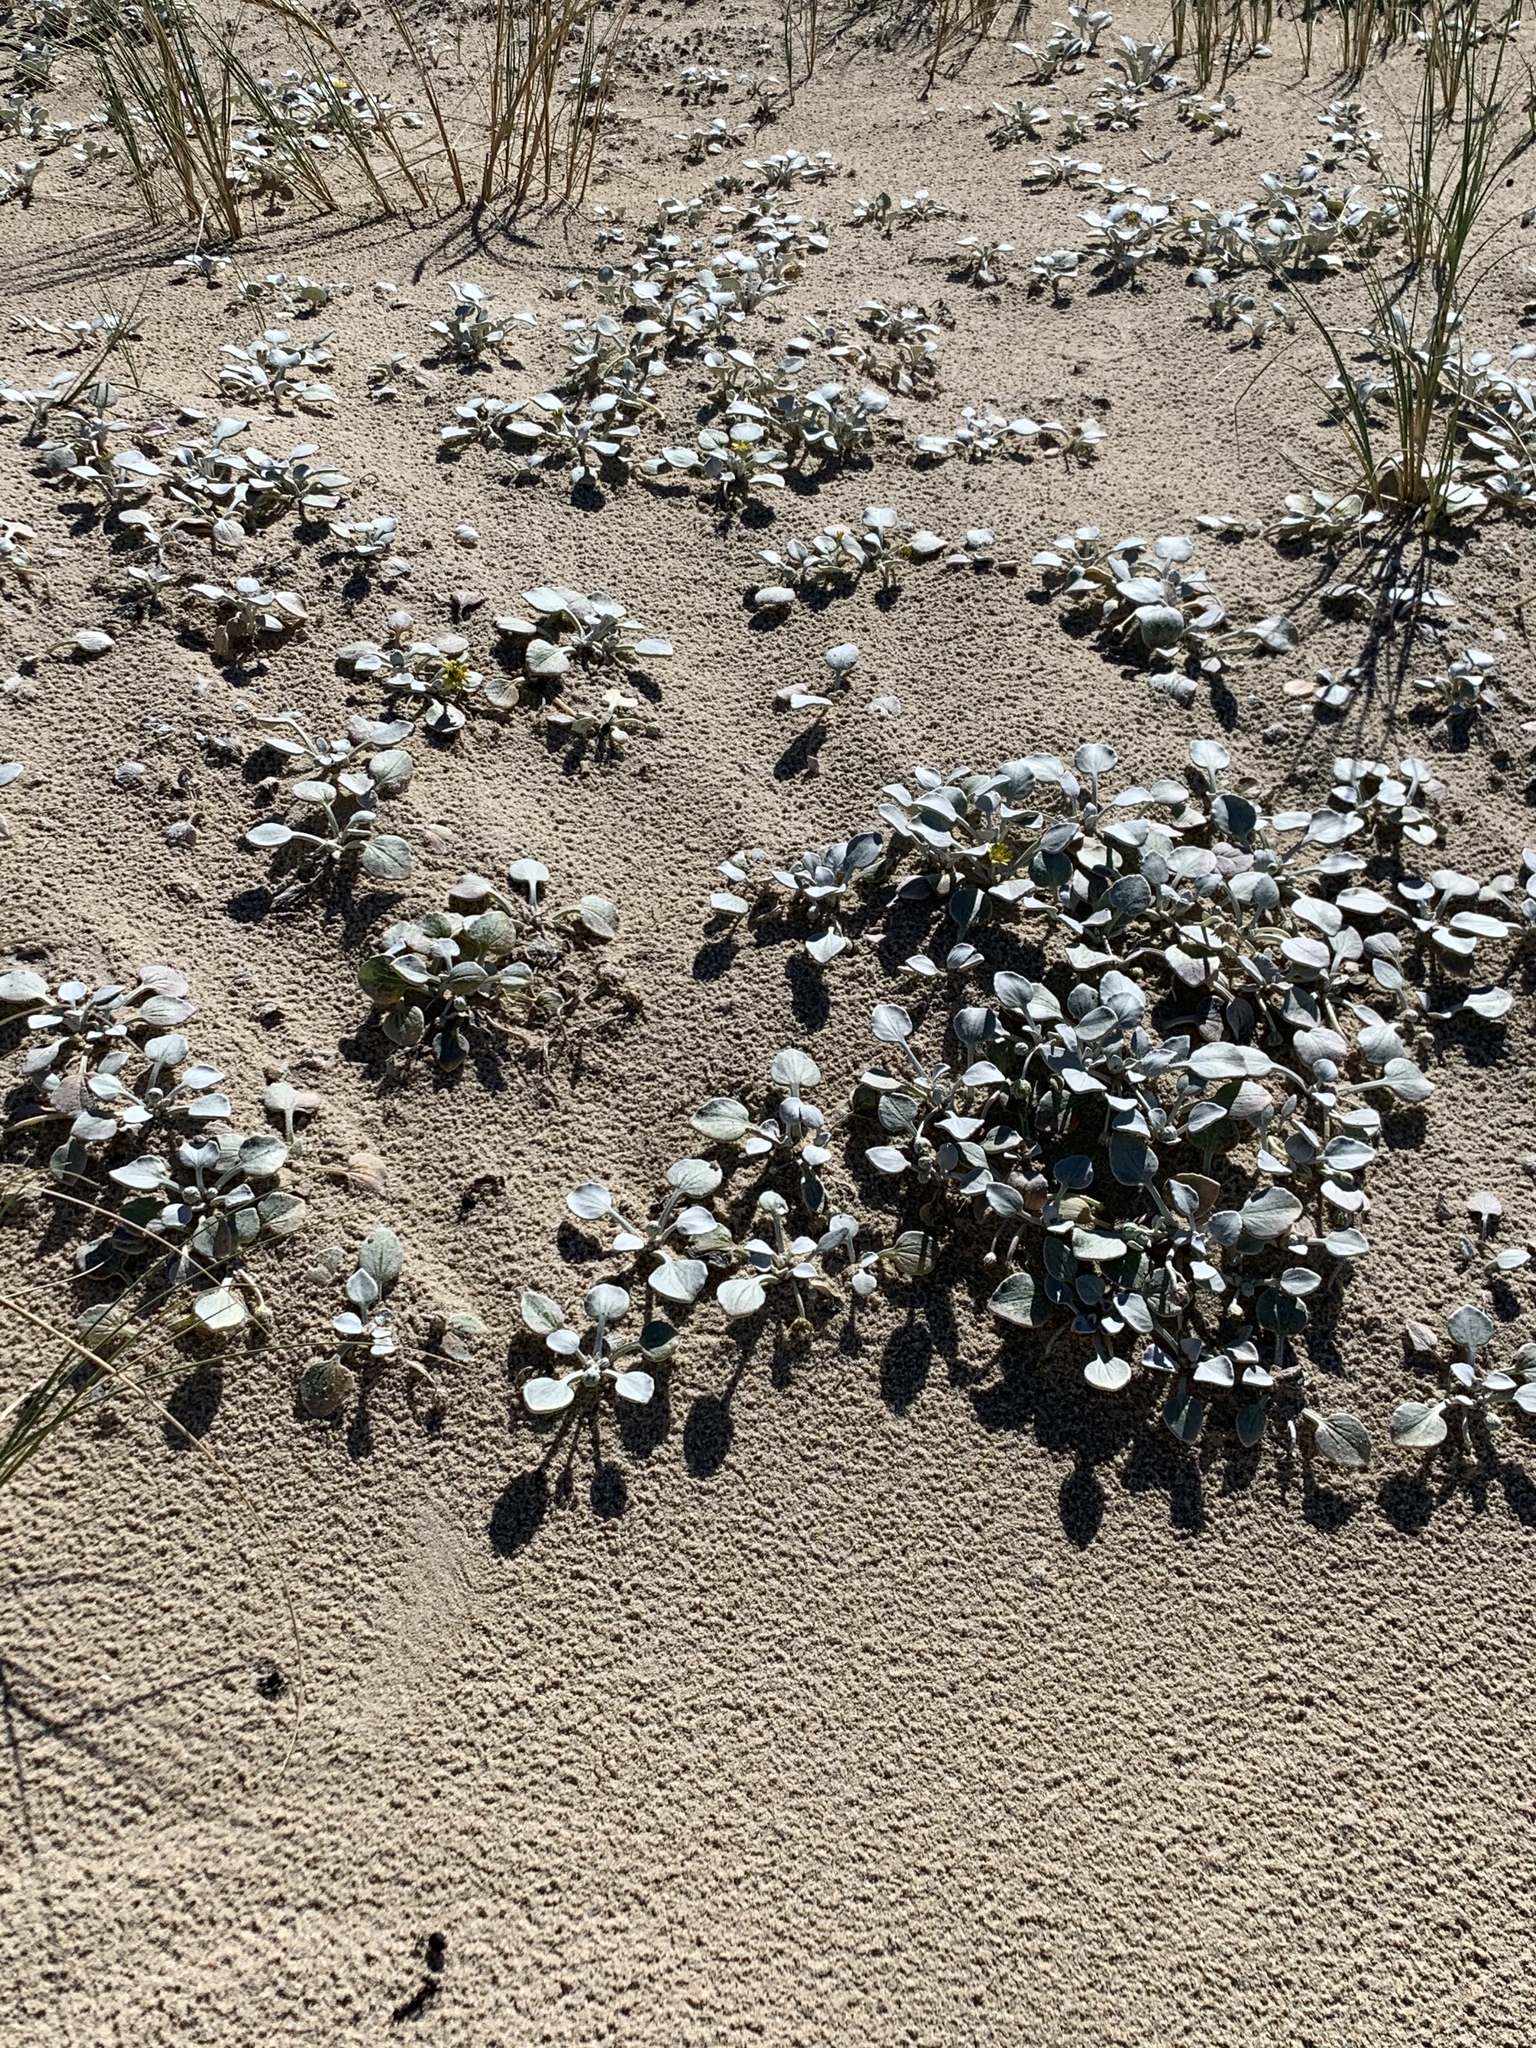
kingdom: Plantae
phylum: Tracheophyta
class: Magnoliopsida
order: Asterales
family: Asteraceae
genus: Arctotheca
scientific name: Arctotheca populifolia
